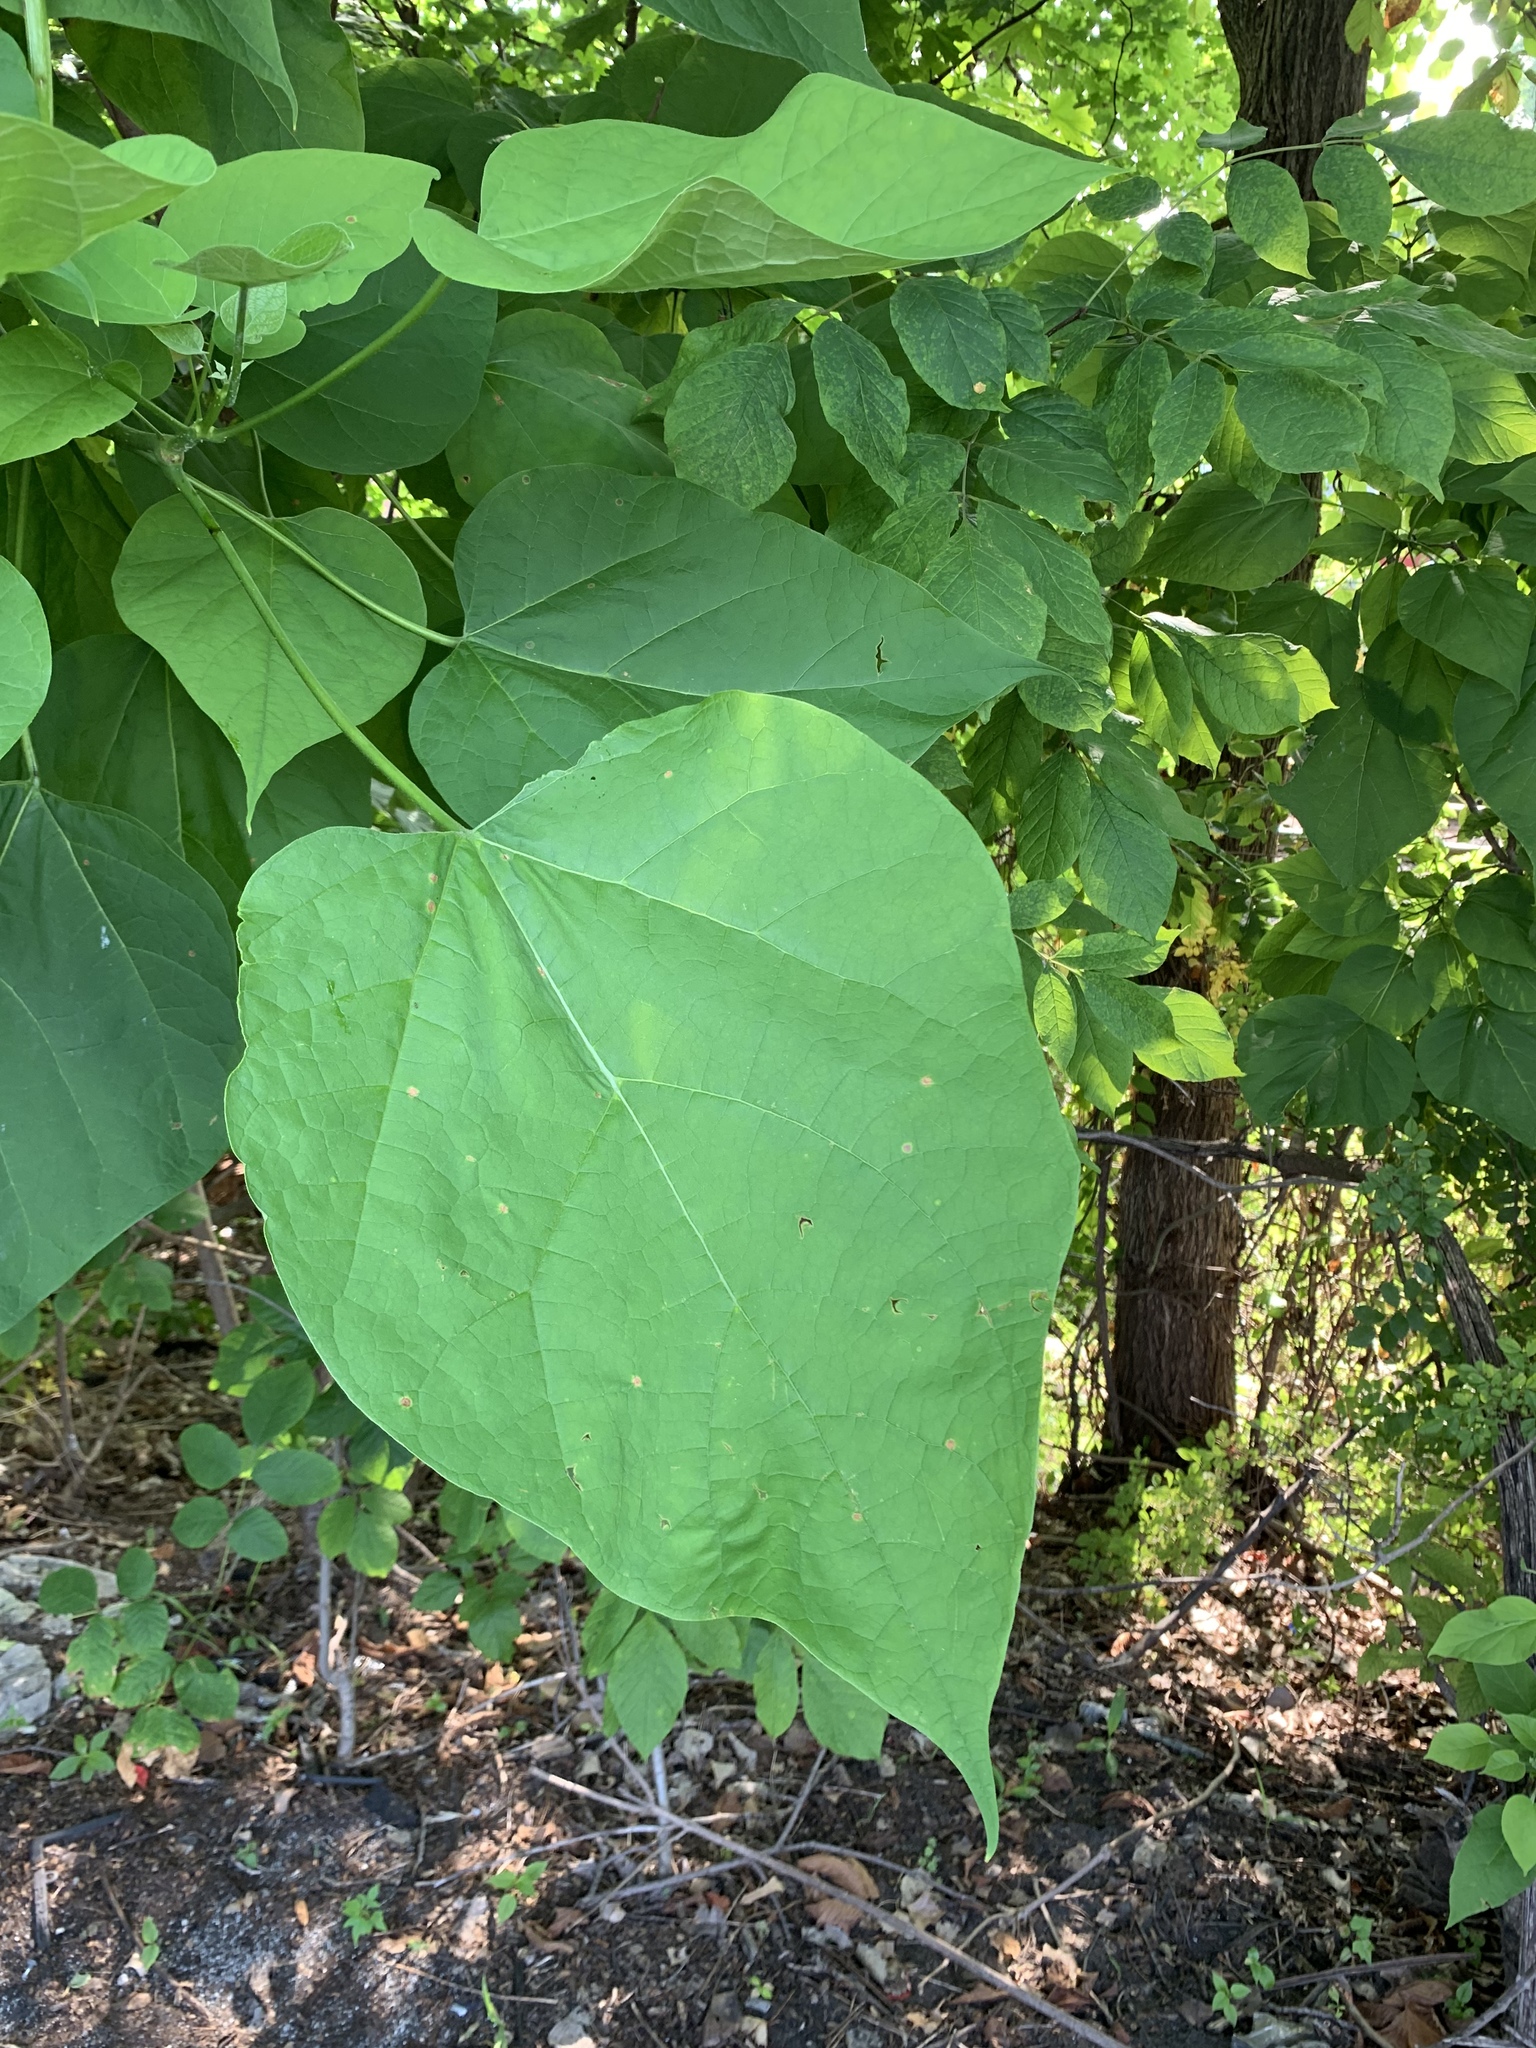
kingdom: Plantae
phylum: Tracheophyta
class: Magnoliopsida
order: Lamiales
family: Bignoniaceae
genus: Catalpa
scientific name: Catalpa speciosa
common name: Northern catalpa
